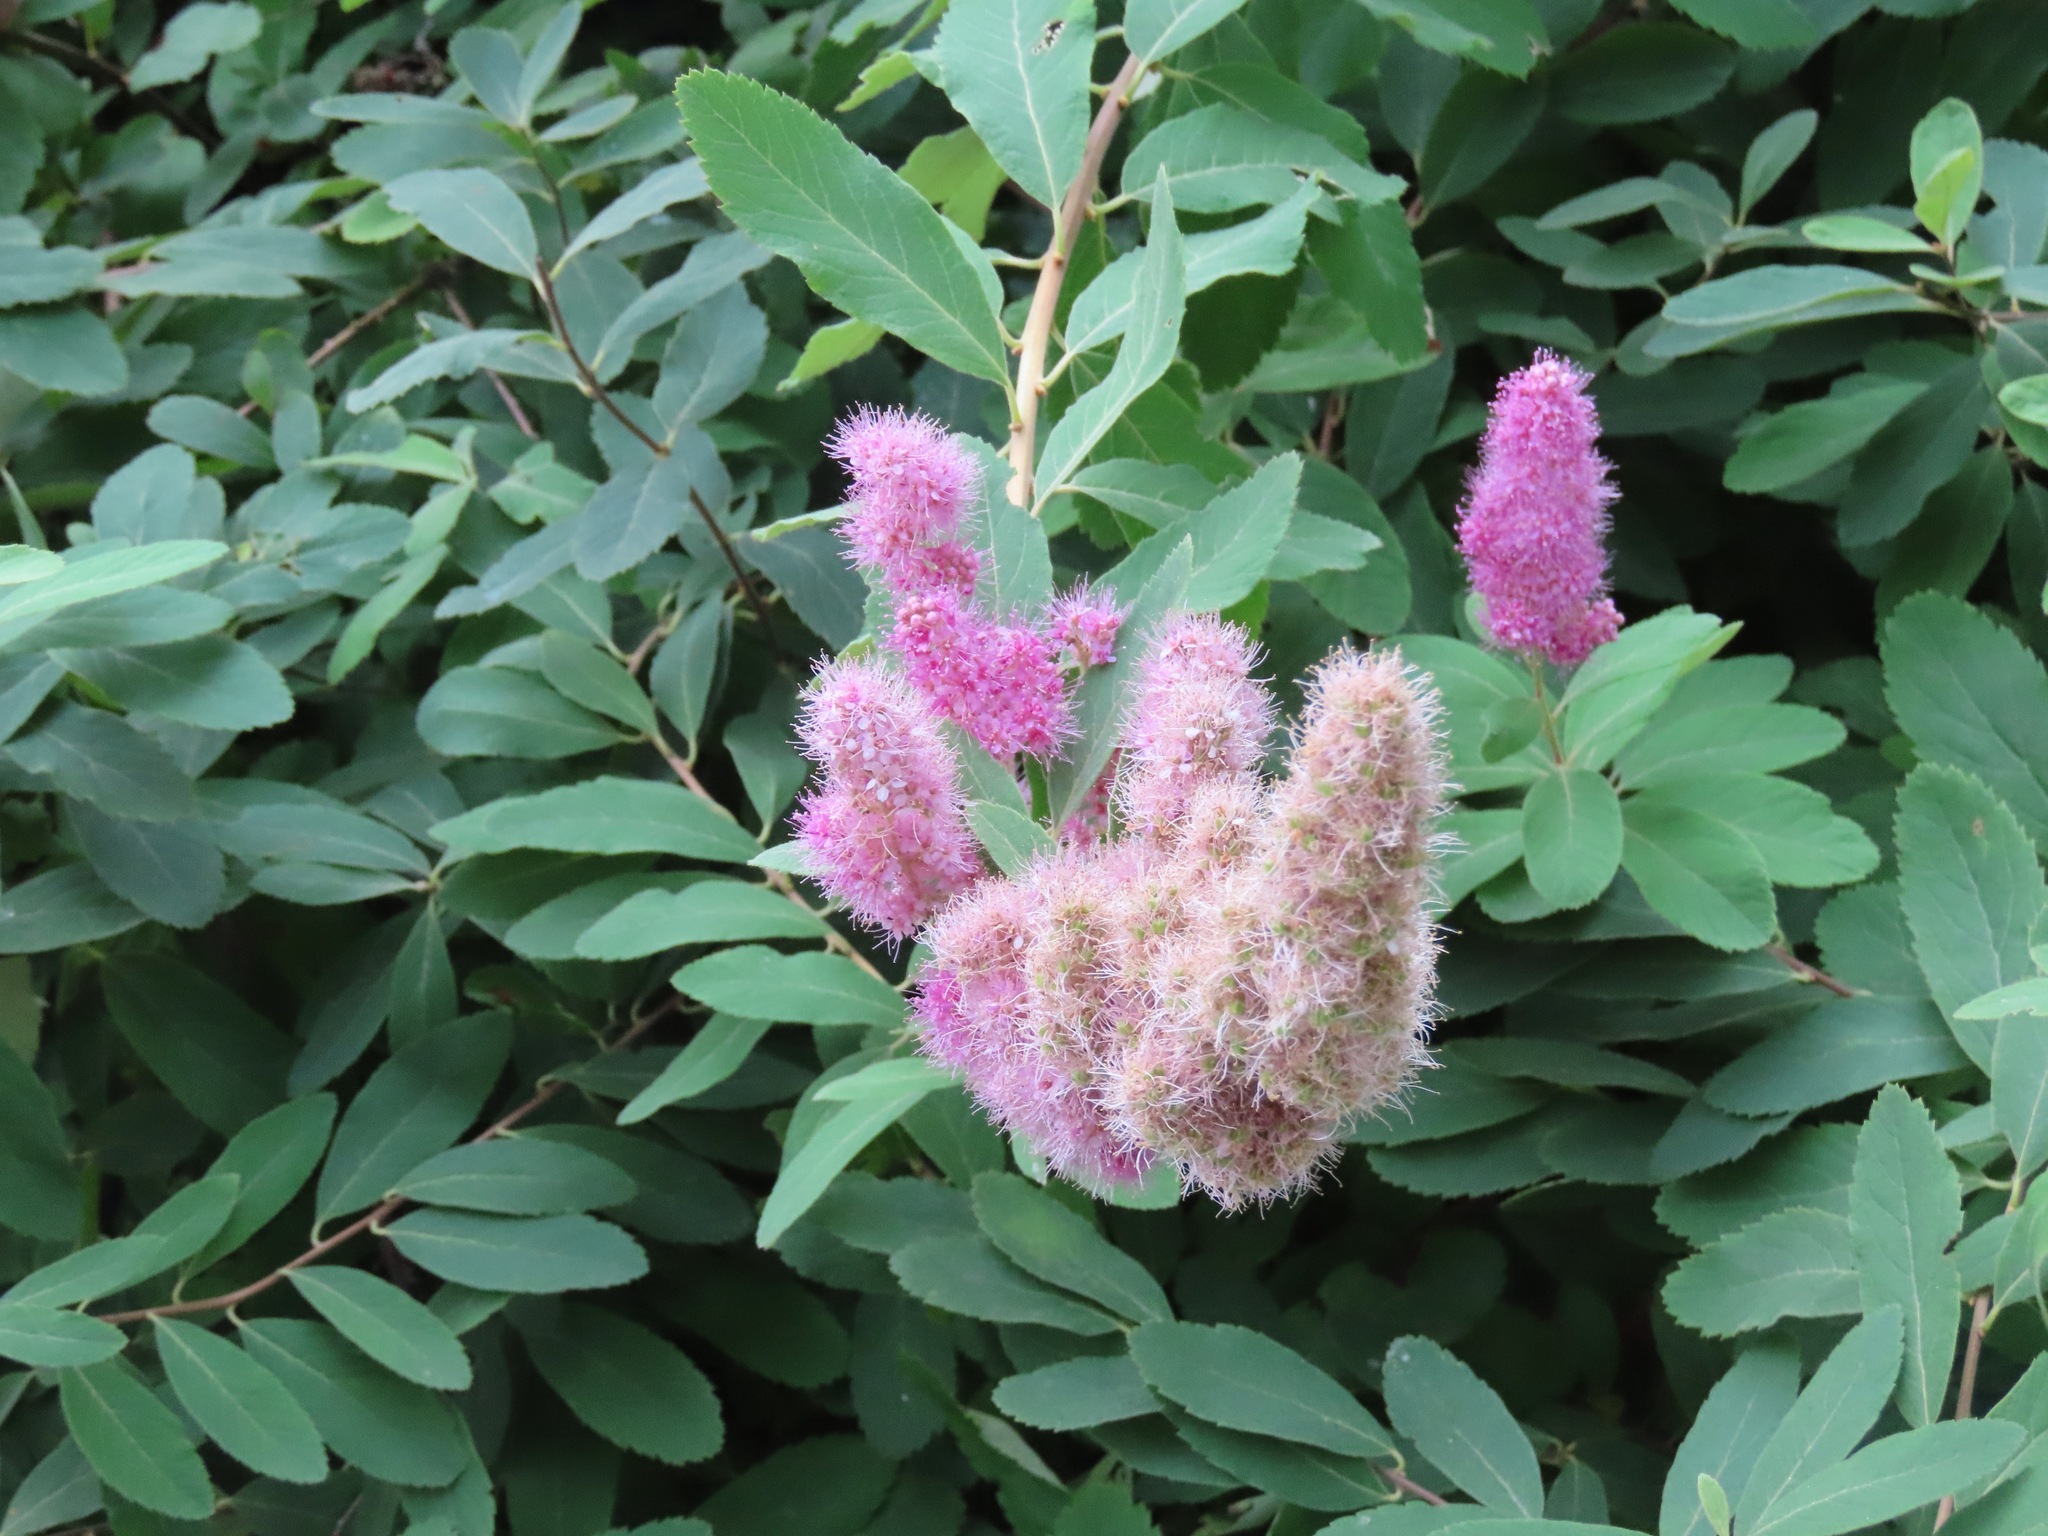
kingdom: Plantae
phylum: Tracheophyta
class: Magnoliopsida
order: Rosales
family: Rosaceae
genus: Spiraea
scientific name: Spiraea douglasii
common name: Steeplebush
